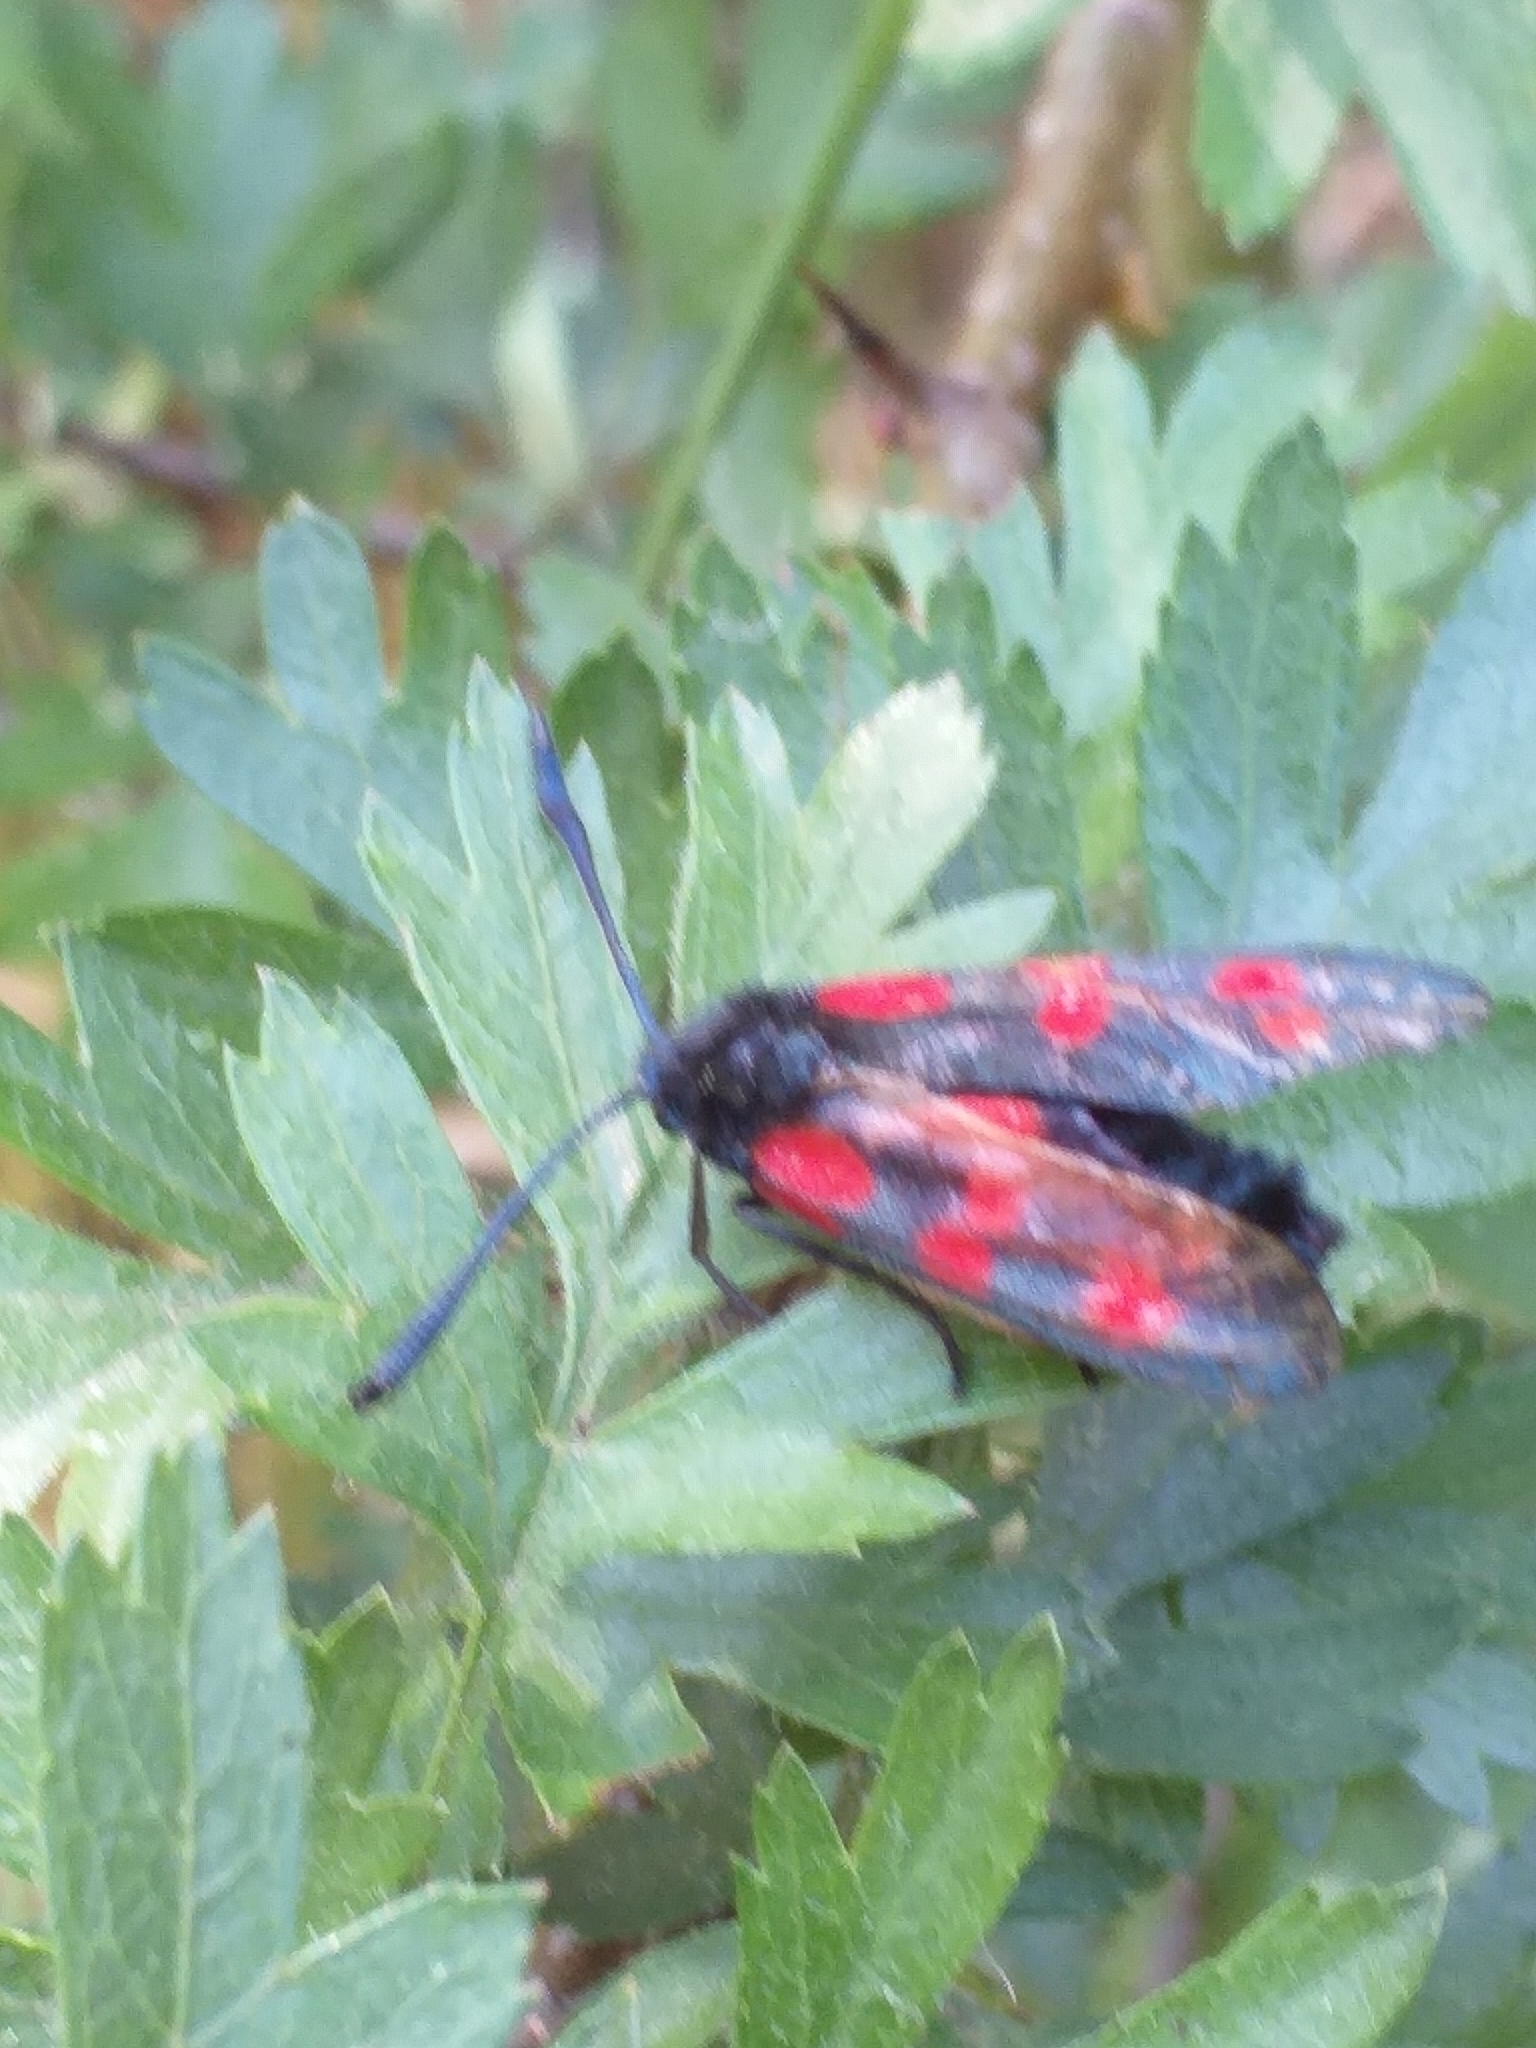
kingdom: Animalia
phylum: Arthropoda
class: Insecta
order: Lepidoptera
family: Zygaenidae
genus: Zygaena
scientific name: Zygaena filipendulae
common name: Six-spot burnet
